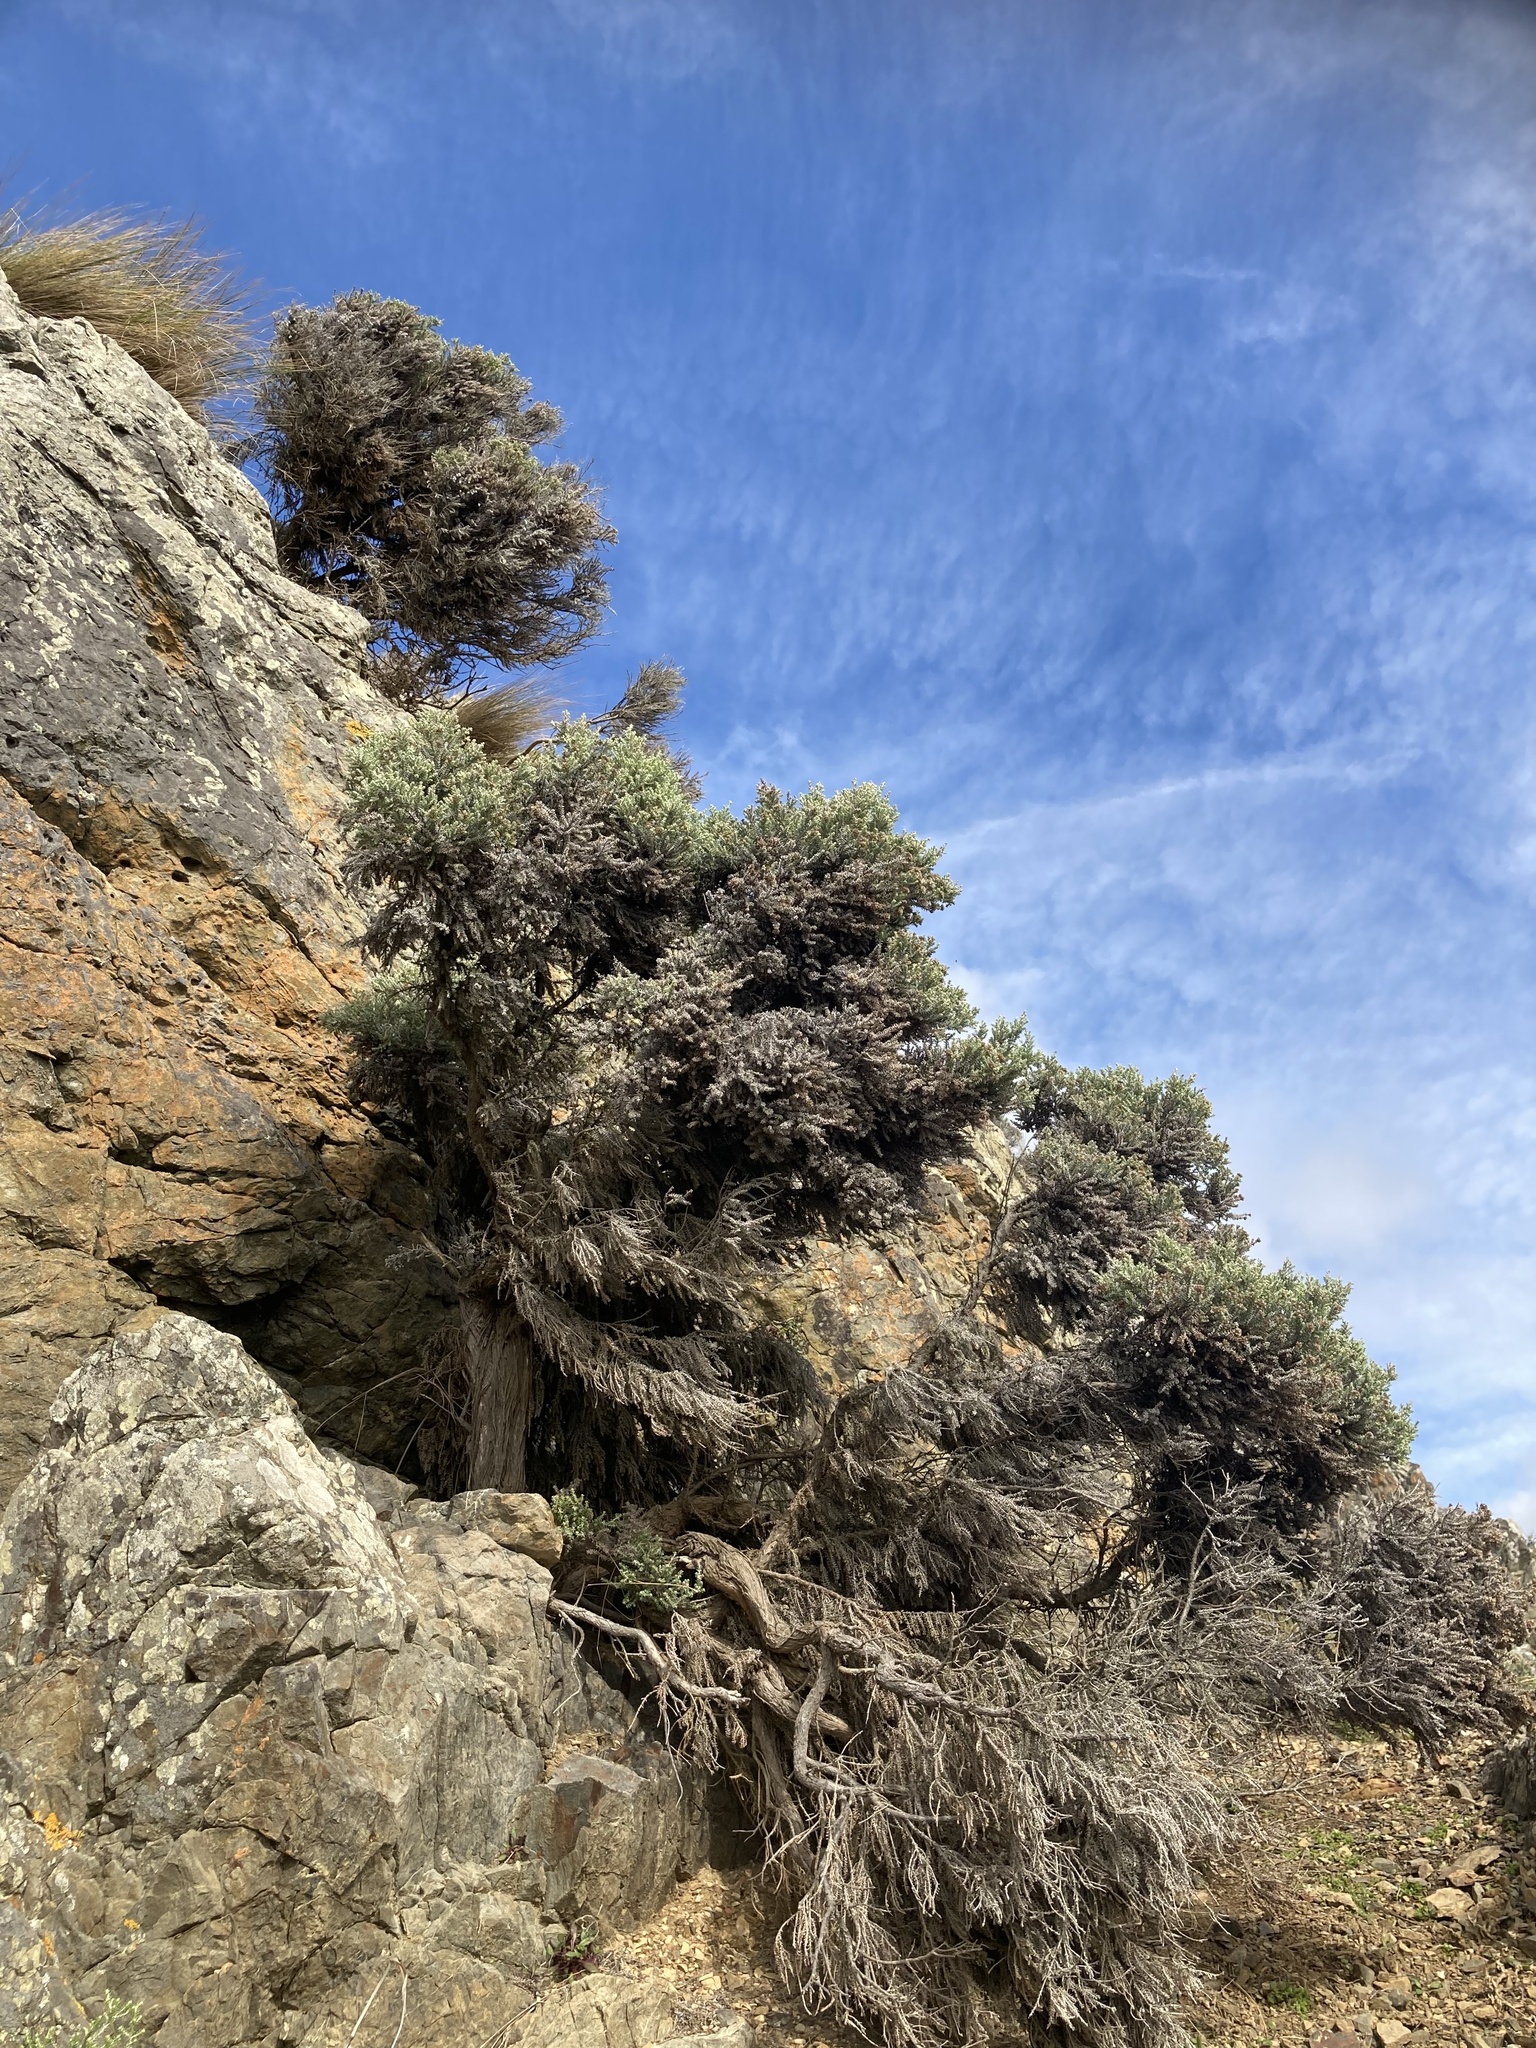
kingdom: Plantae
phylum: Tracheophyta
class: Magnoliopsida
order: Asterales
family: Asteraceae
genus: Ozothamnus
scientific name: Ozothamnus leptophyllus
